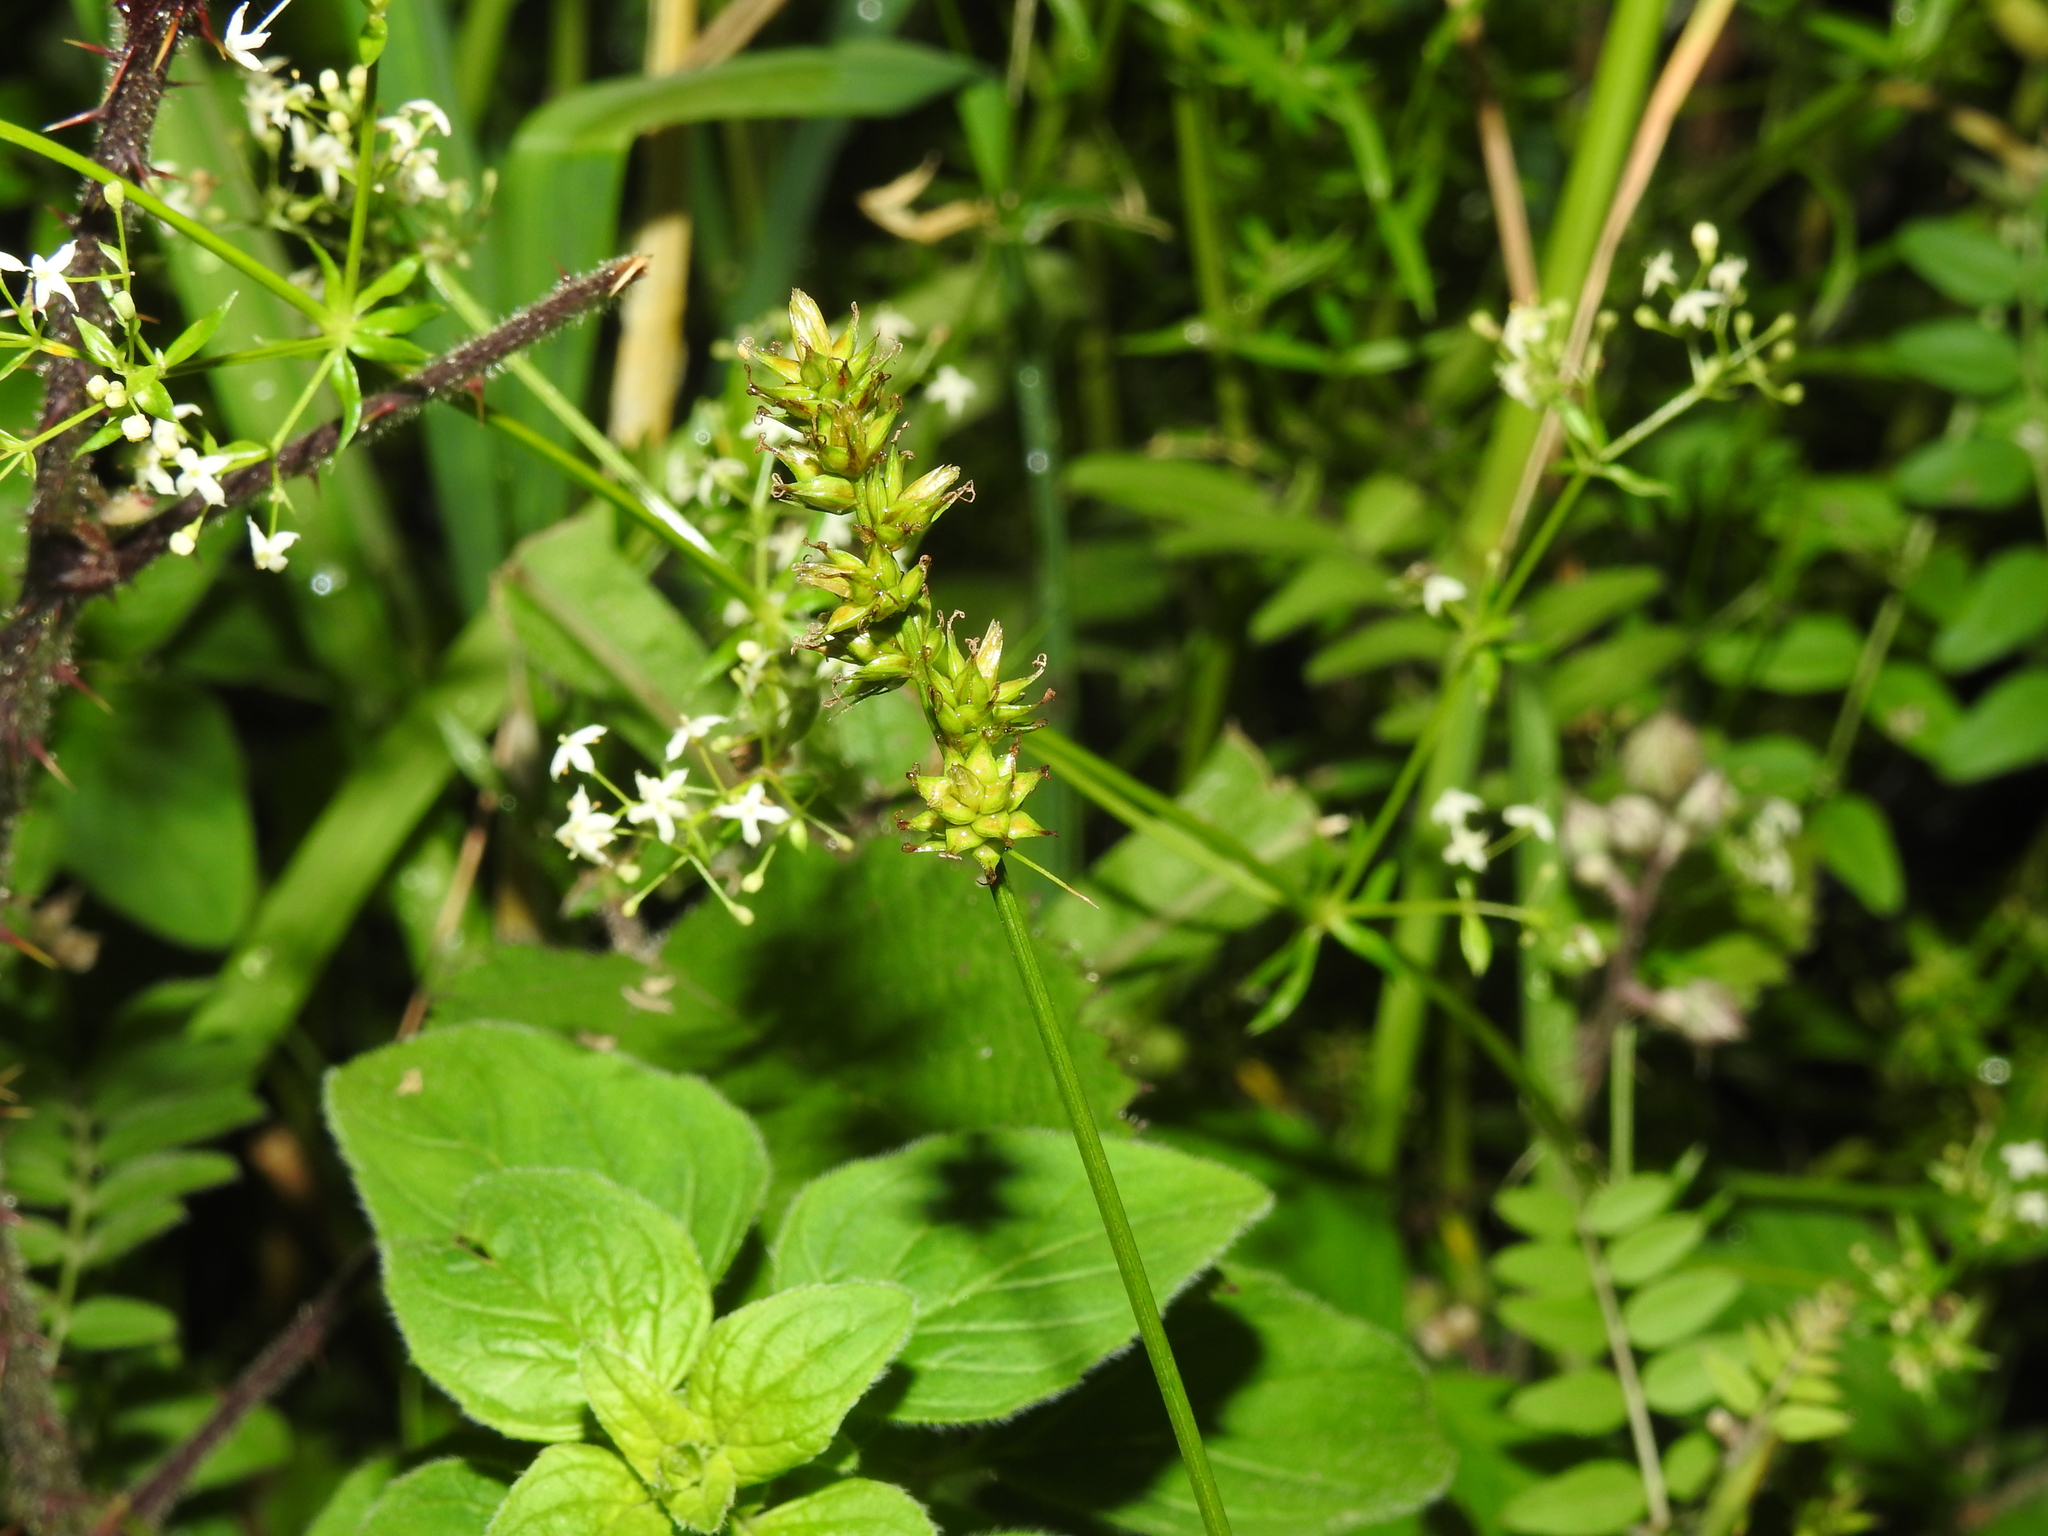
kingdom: Plantae
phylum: Tracheophyta
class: Liliopsida
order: Poales
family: Cyperaceae
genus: Carex
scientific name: Carex muricata
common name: Rough sedge
